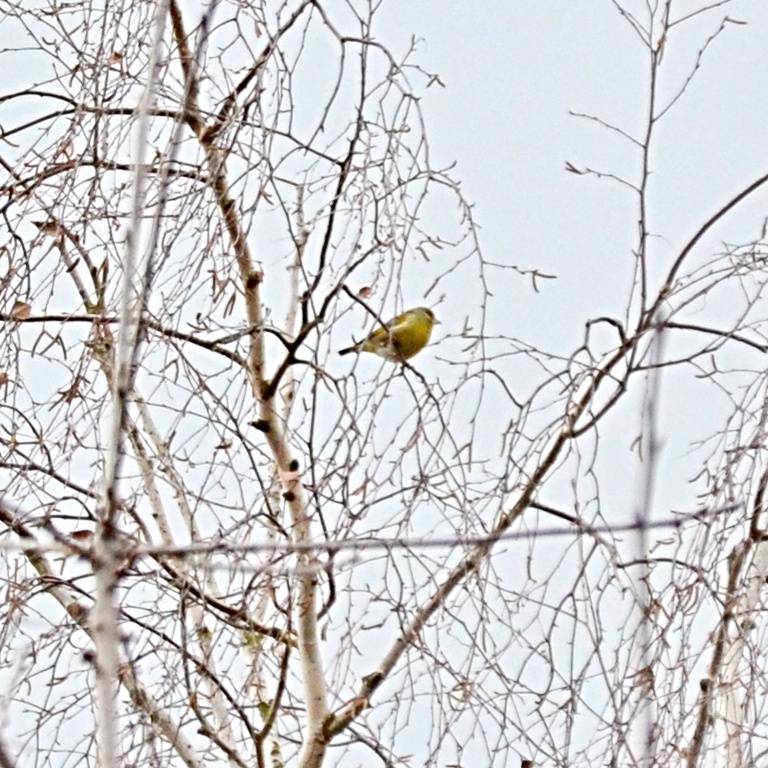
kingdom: Plantae
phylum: Tracheophyta
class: Liliopsida
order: Poales
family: Poaceae
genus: Chloris
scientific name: Chloris chloris
